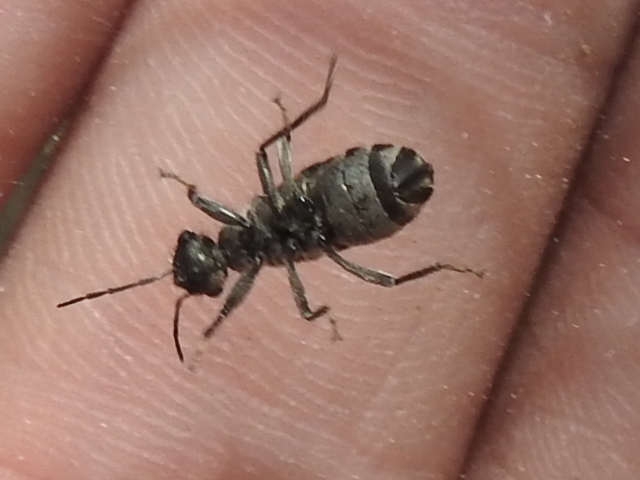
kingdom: Animalia
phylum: Arthropoda
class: Insecta
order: Hemiptera
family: Largidae
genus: Arhaphe
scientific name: Arhaphe carolina
